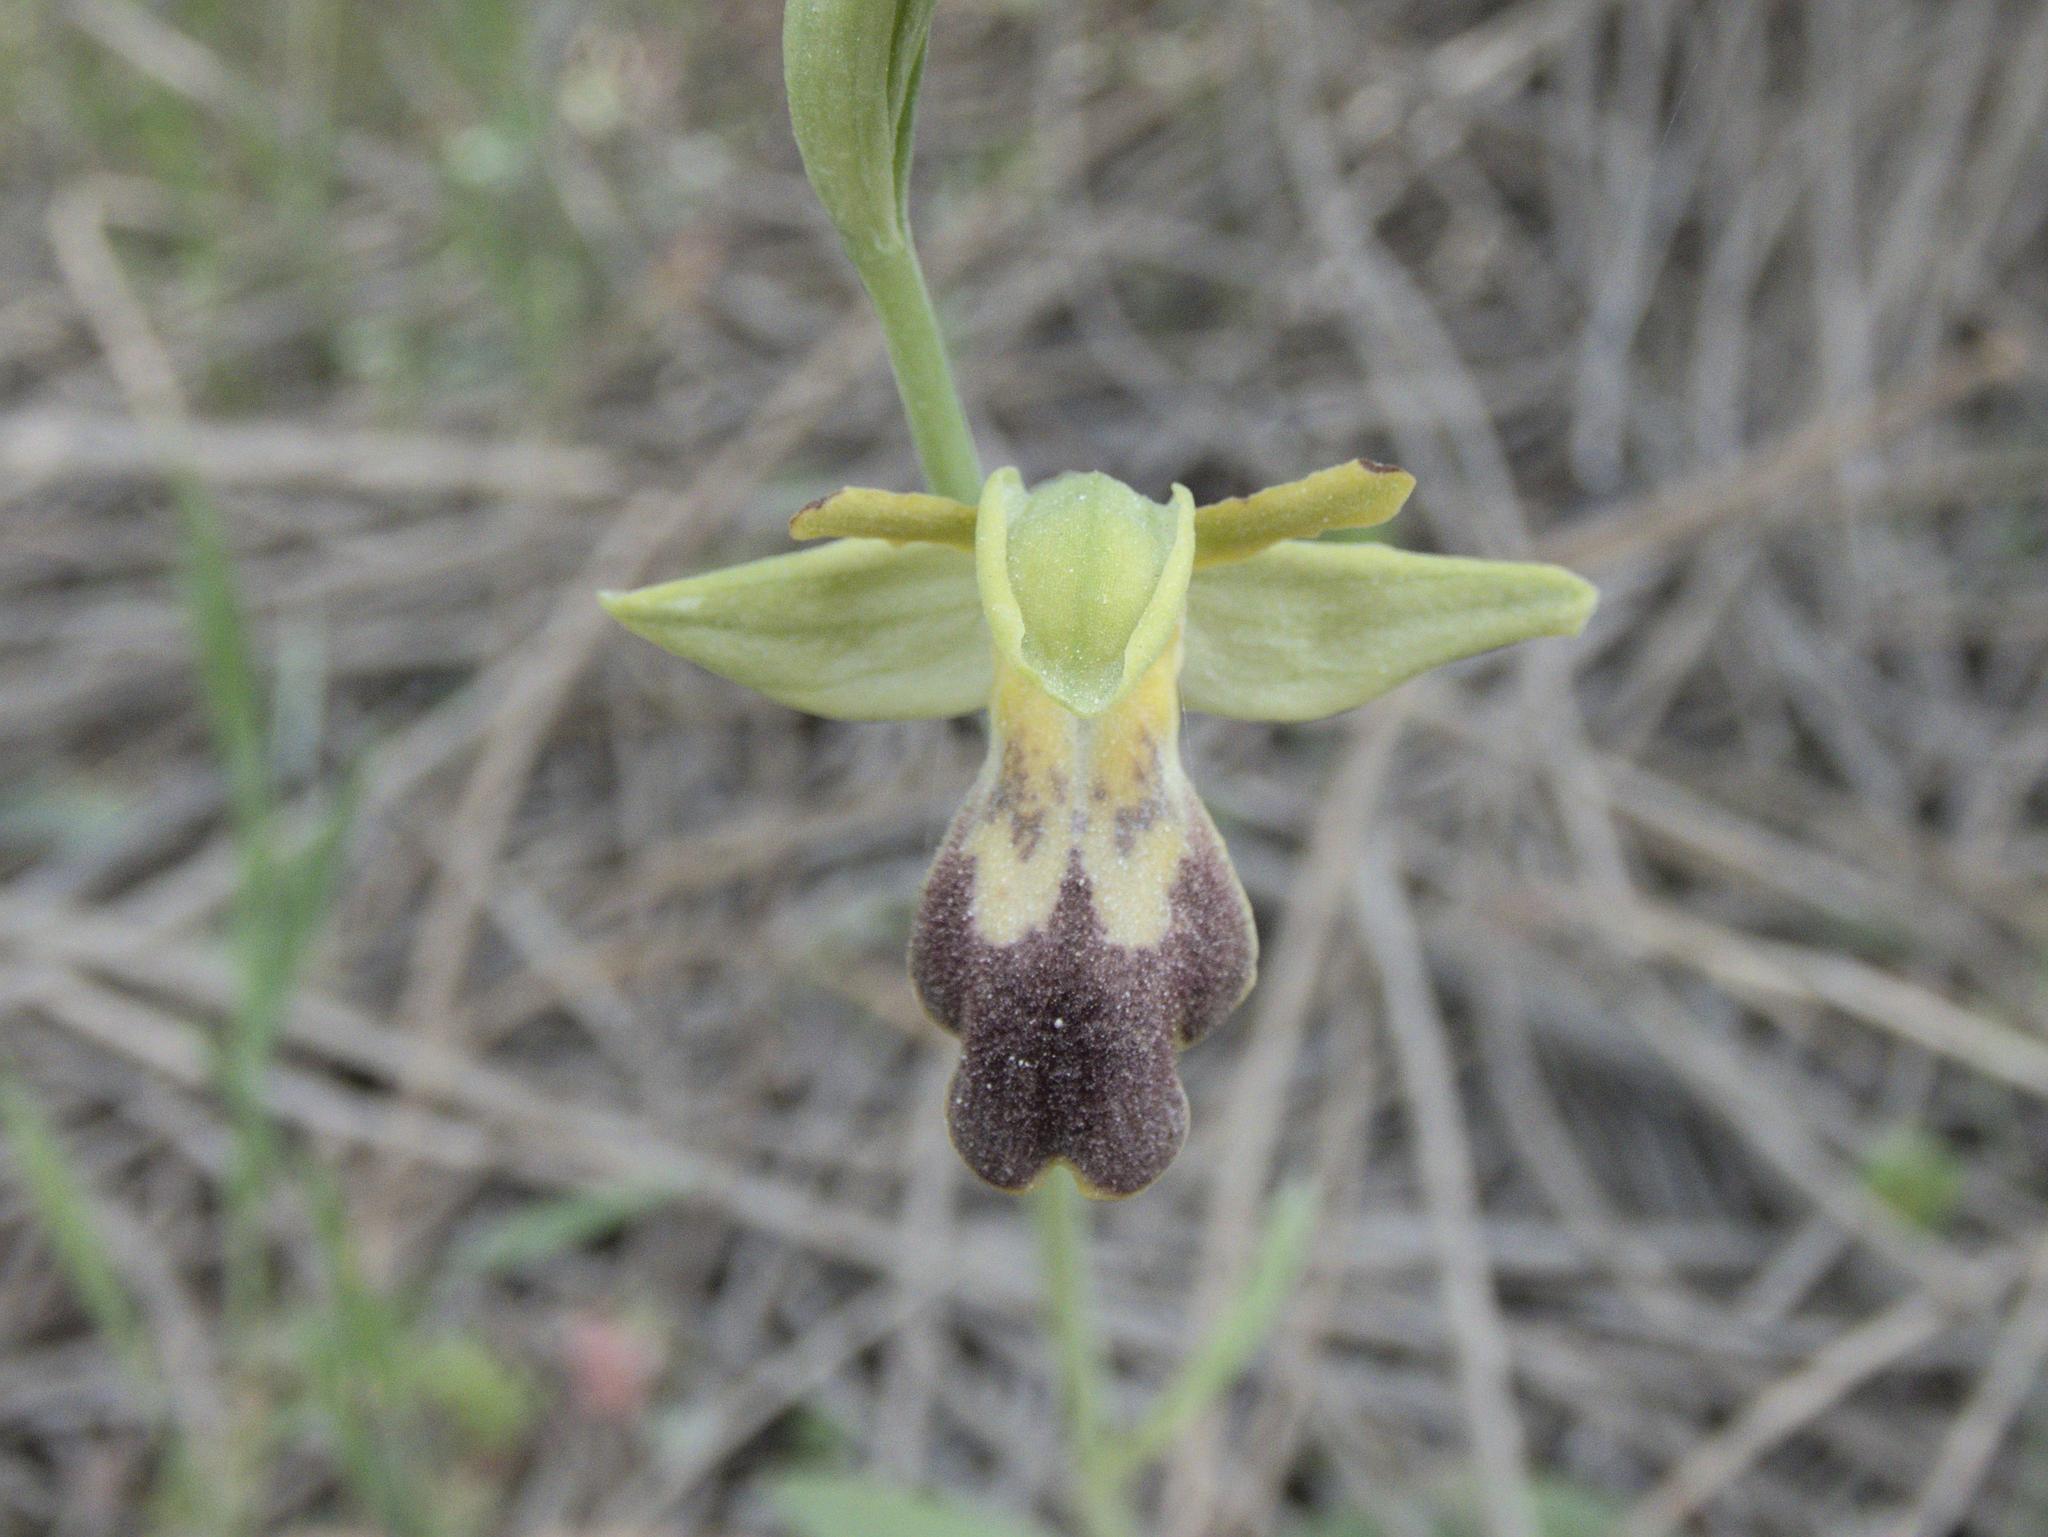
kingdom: Plantae
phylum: Tracheophyta
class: Liliopsida
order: Asparagales
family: Orchidaceae
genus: Ophrys
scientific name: Ophrys fusca
